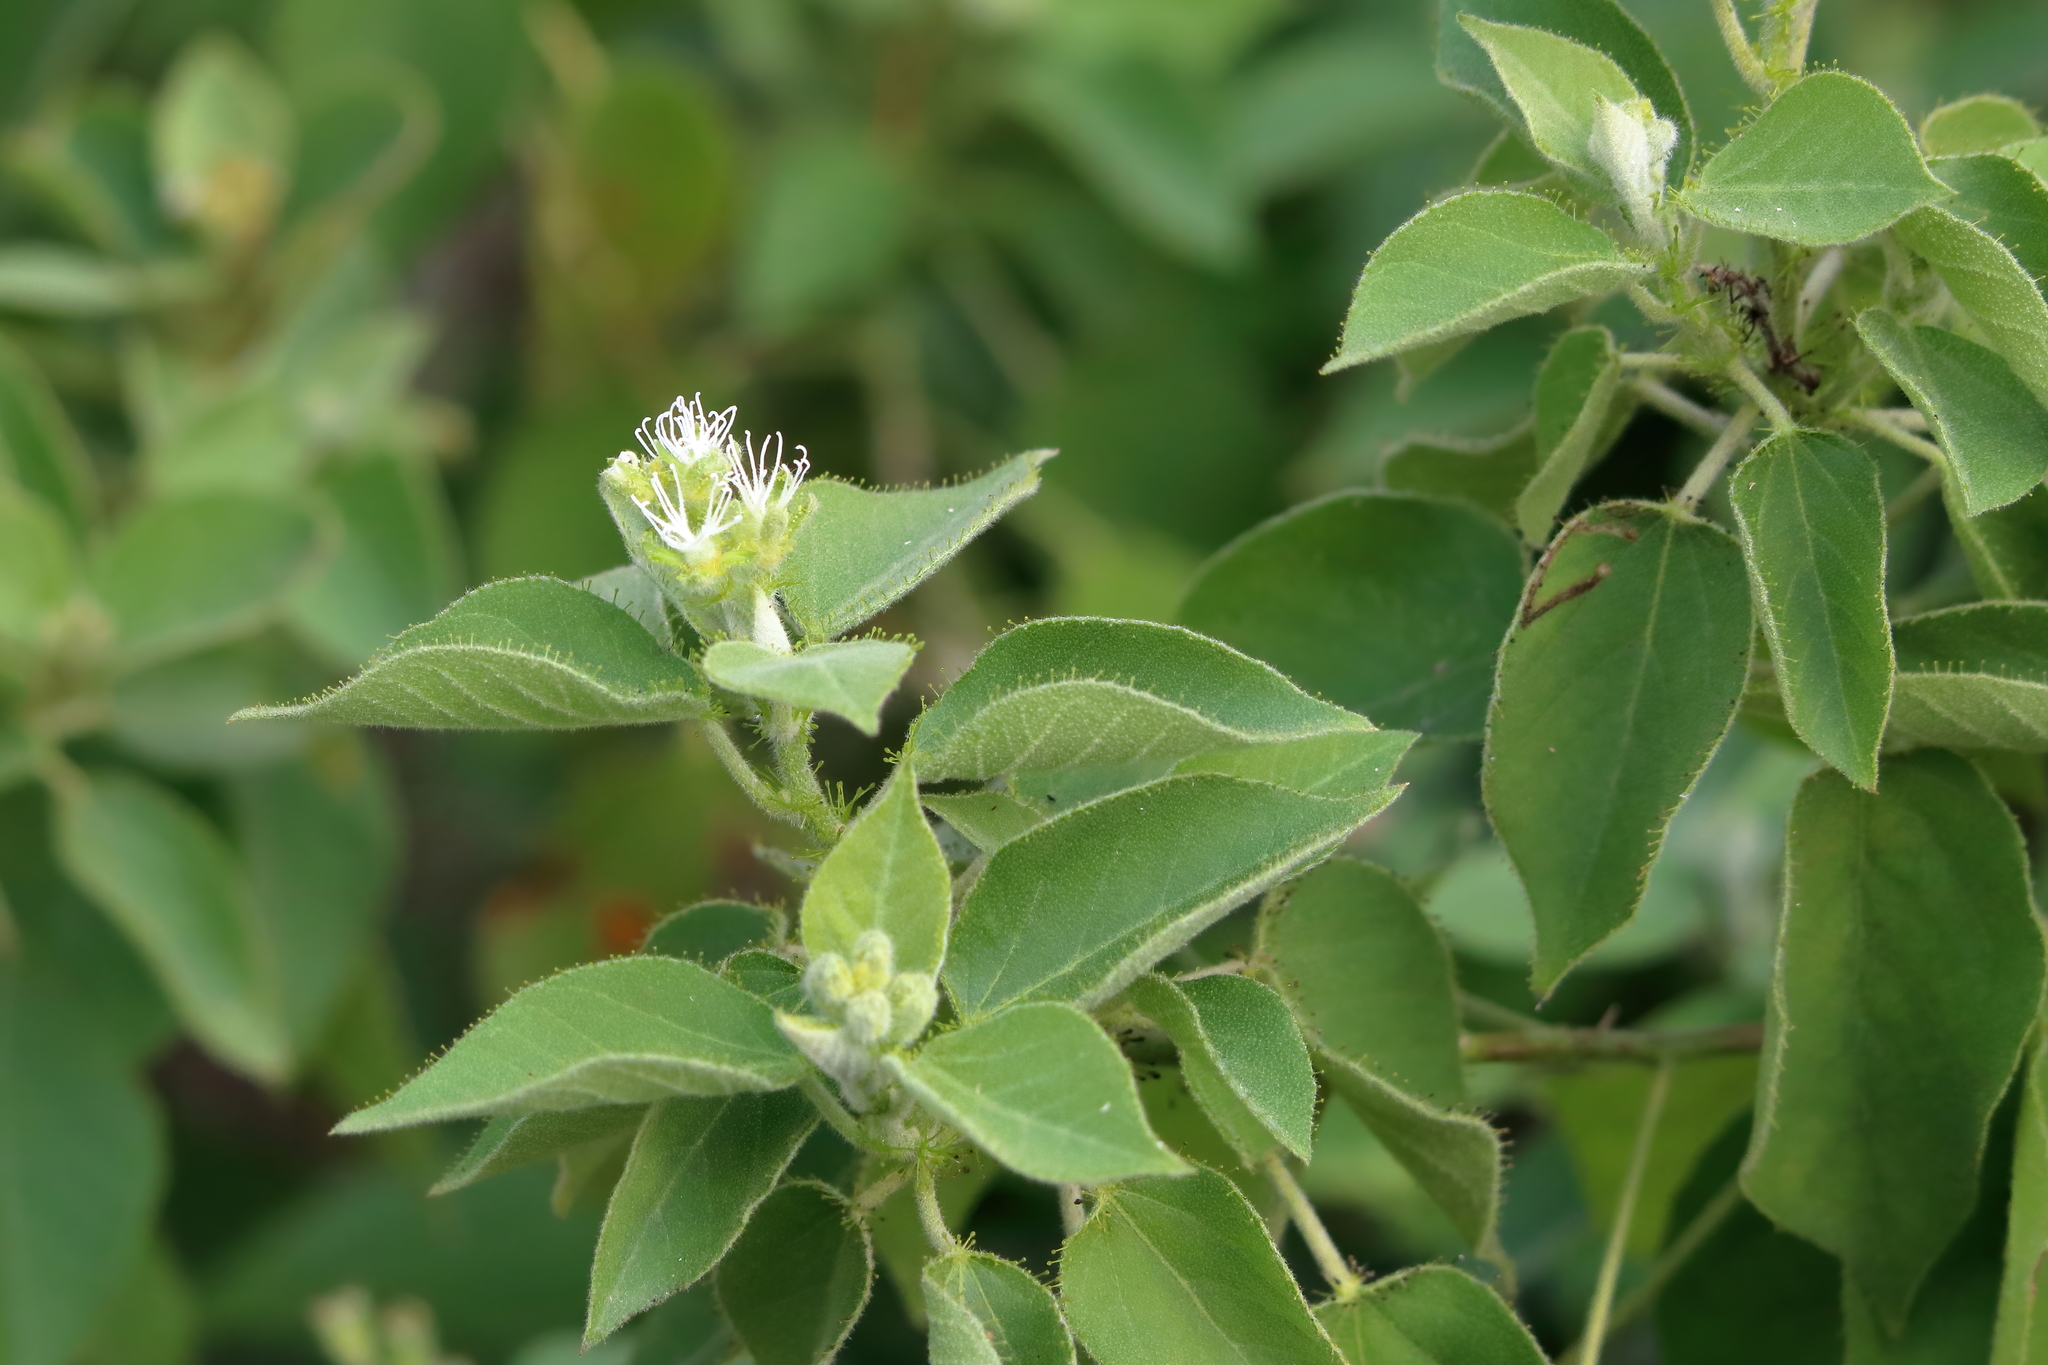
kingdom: Plantae
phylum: Tracheophyta
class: Magnoliopsida
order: Malpighiales
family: Euphorbiaceae
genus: Croton
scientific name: Croton ciliatoglandulifer
